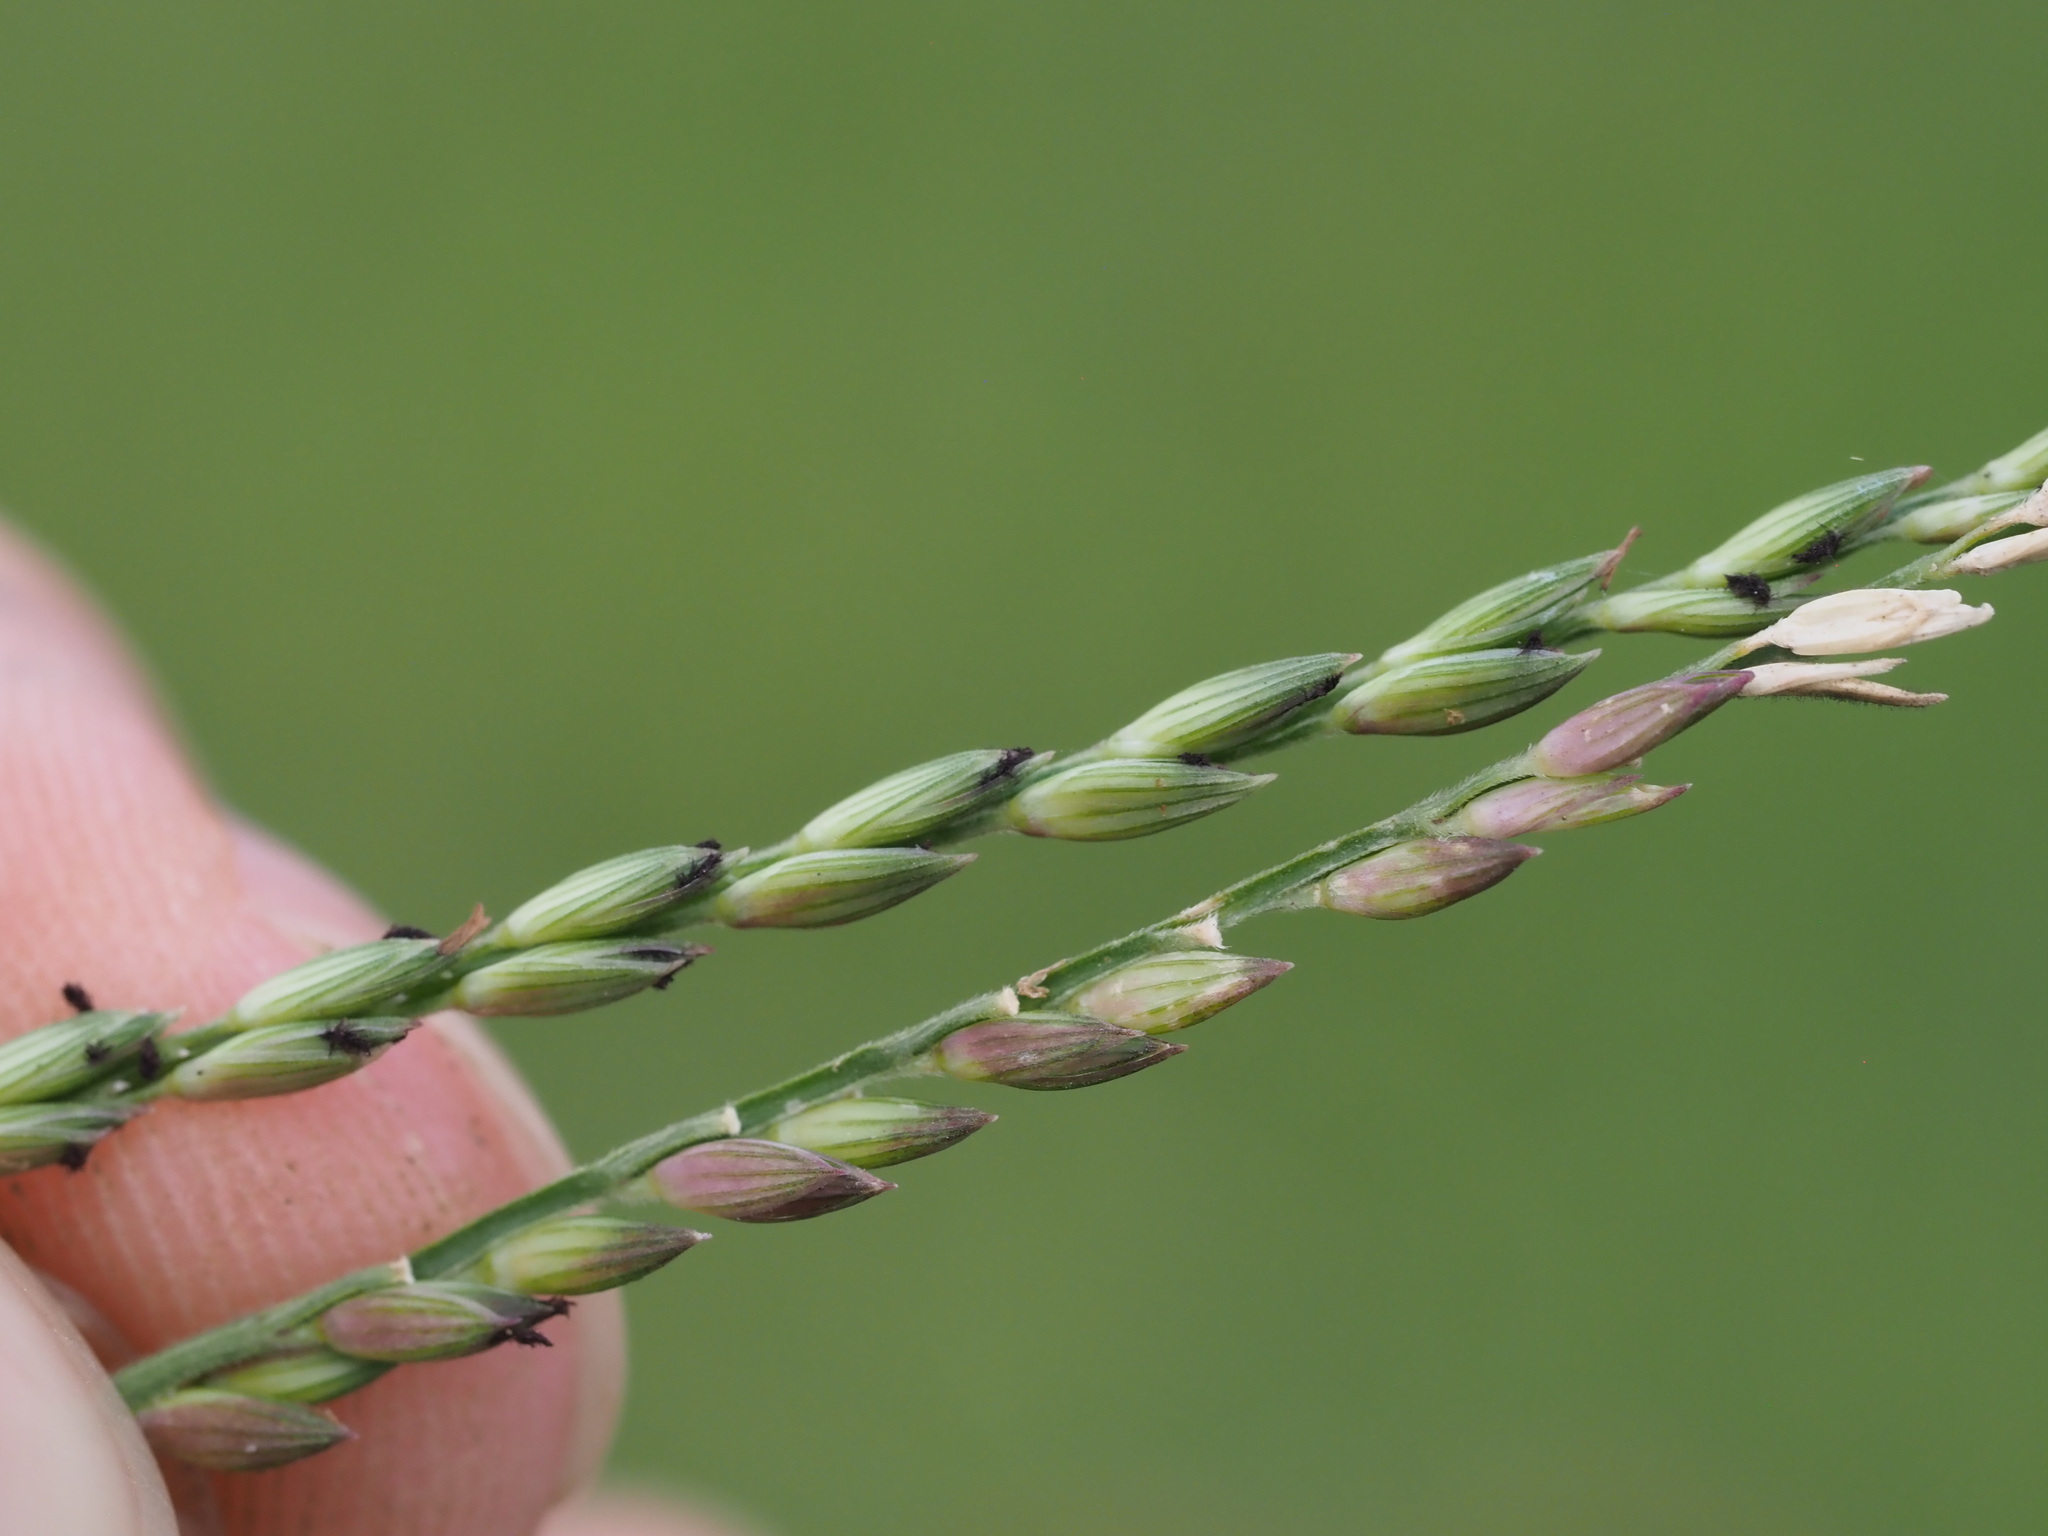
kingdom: Plantae
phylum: Tracheophyta
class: Liliopsida
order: Poales
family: Poaceae
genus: Urochloa
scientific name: Urochloa glumaris
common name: Thurston grass
